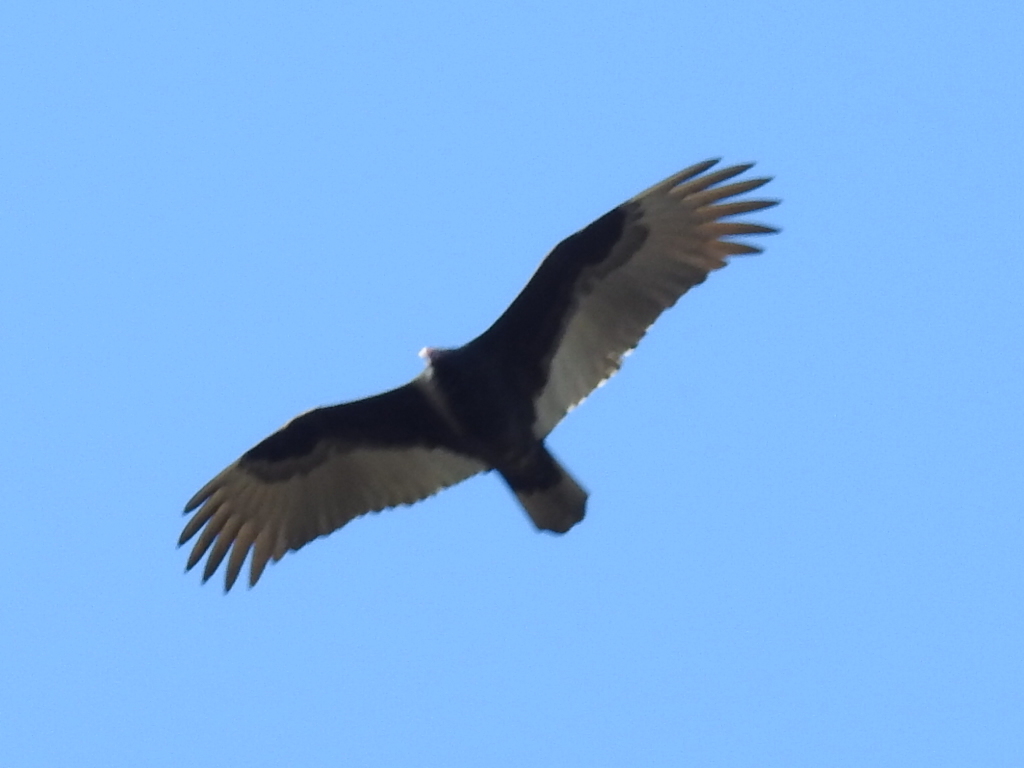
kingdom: Animalia
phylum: Chordata
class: Aves
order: Accipitriformes
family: Cathartidae
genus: Cathartes
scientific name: Cathartes aura
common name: Turkey vulture
